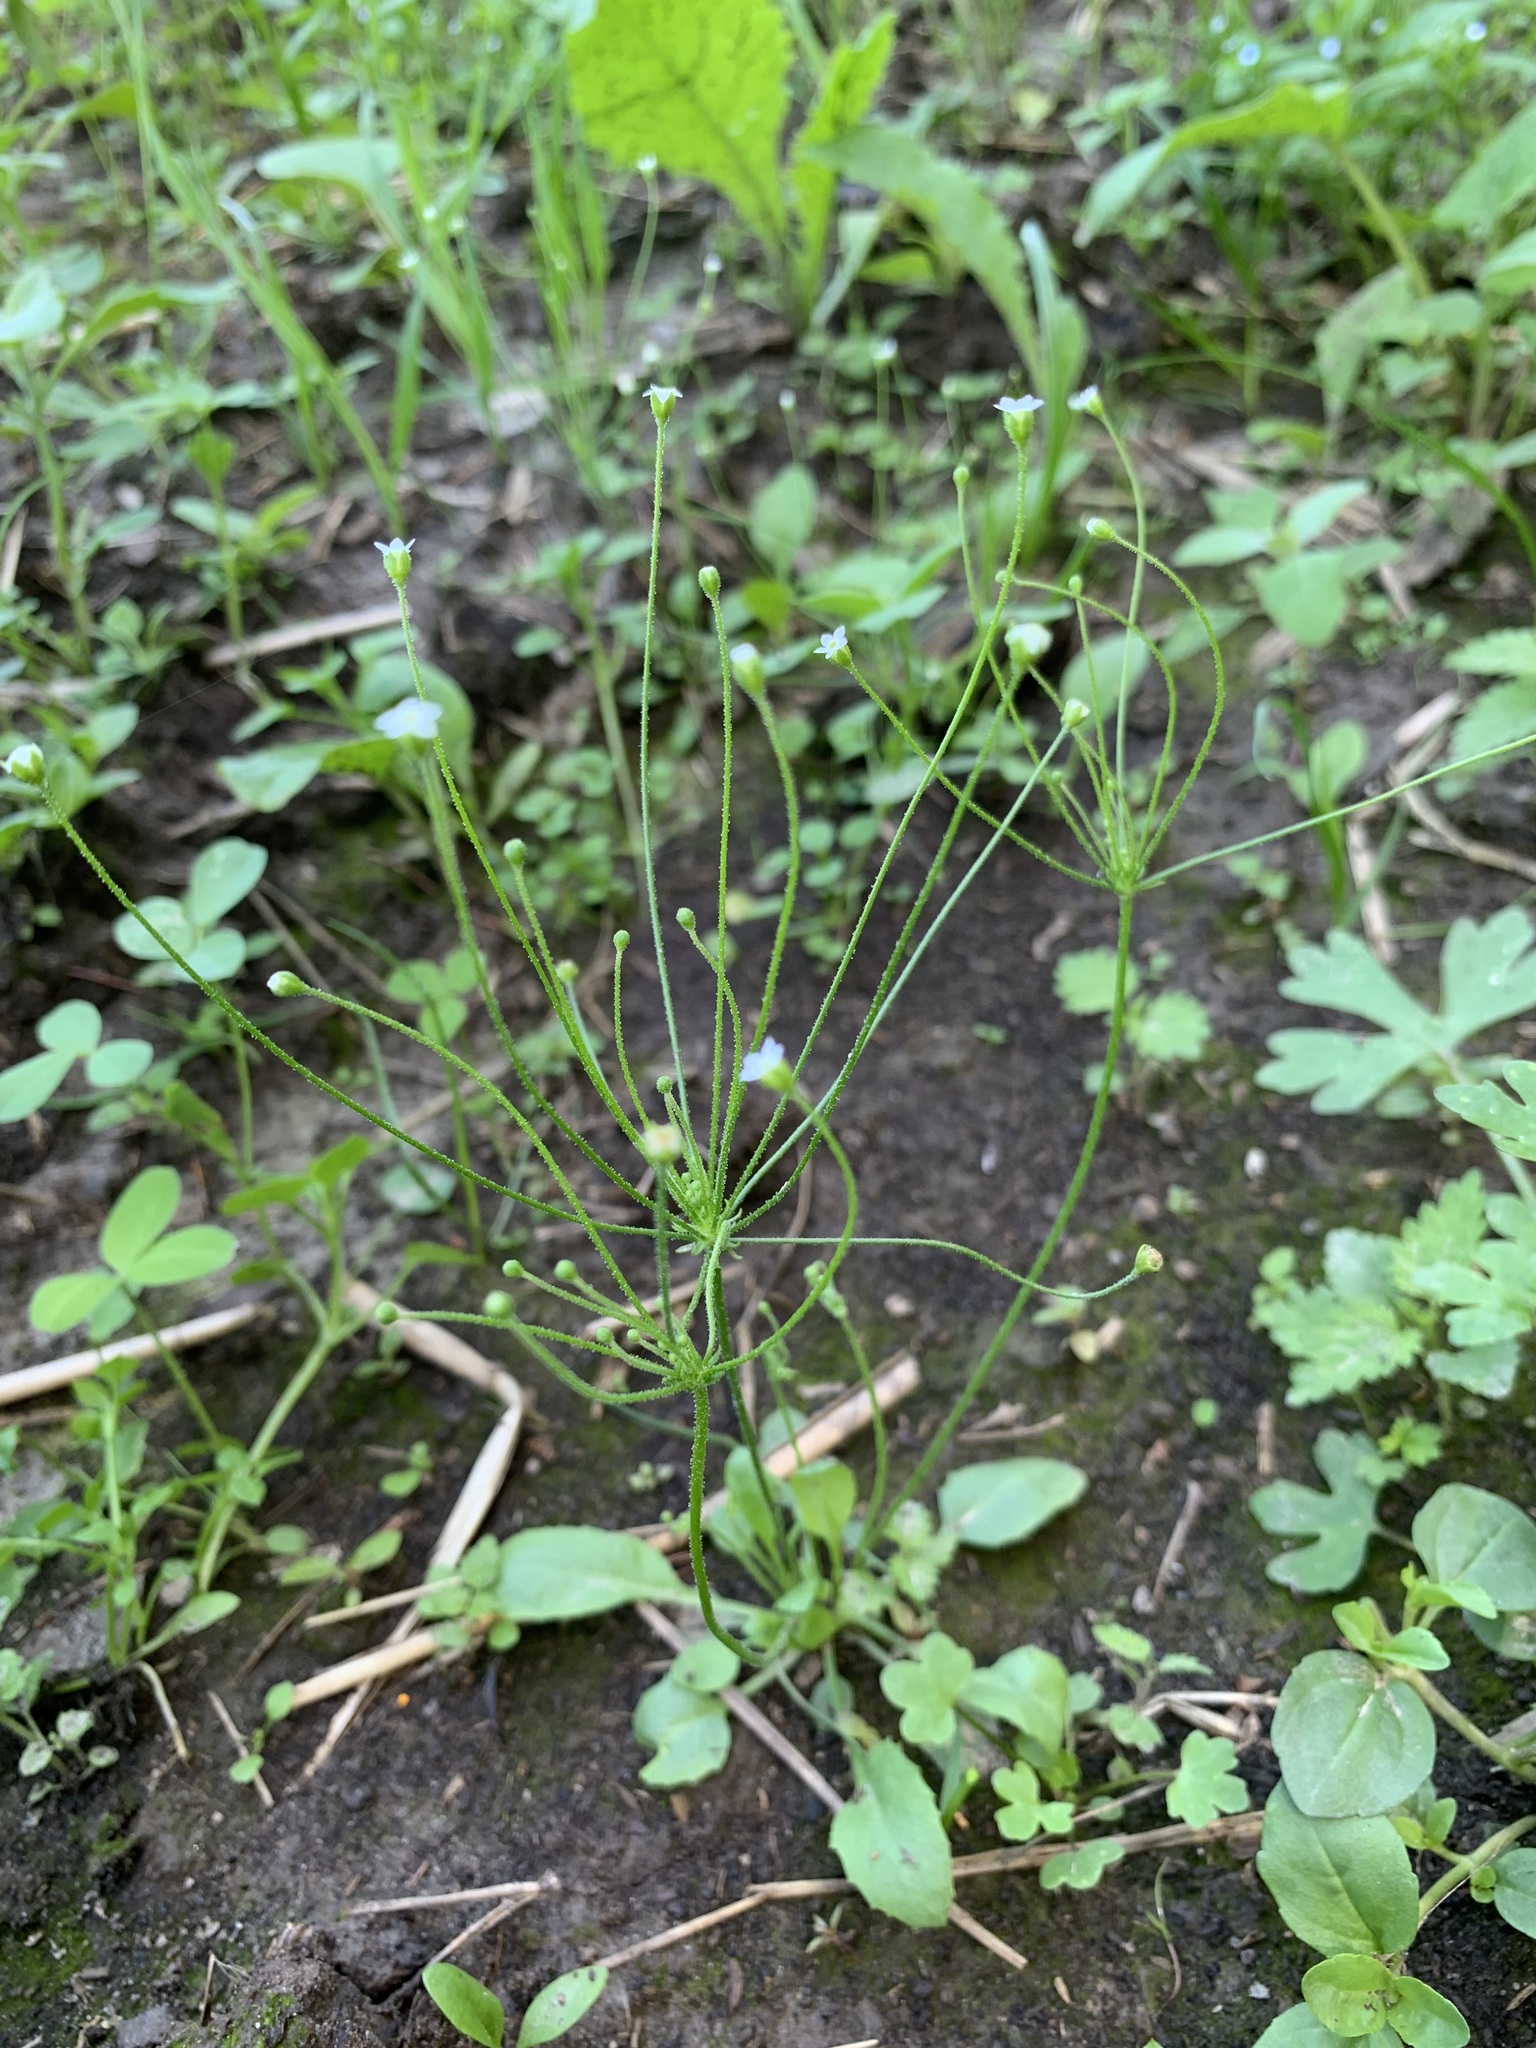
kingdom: Plantae
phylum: Tracheophyta
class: Magnoliopsida
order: Ericales
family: Primulaceae
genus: Androsace
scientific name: Androsace filiformis
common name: Filiform rock jasmine
